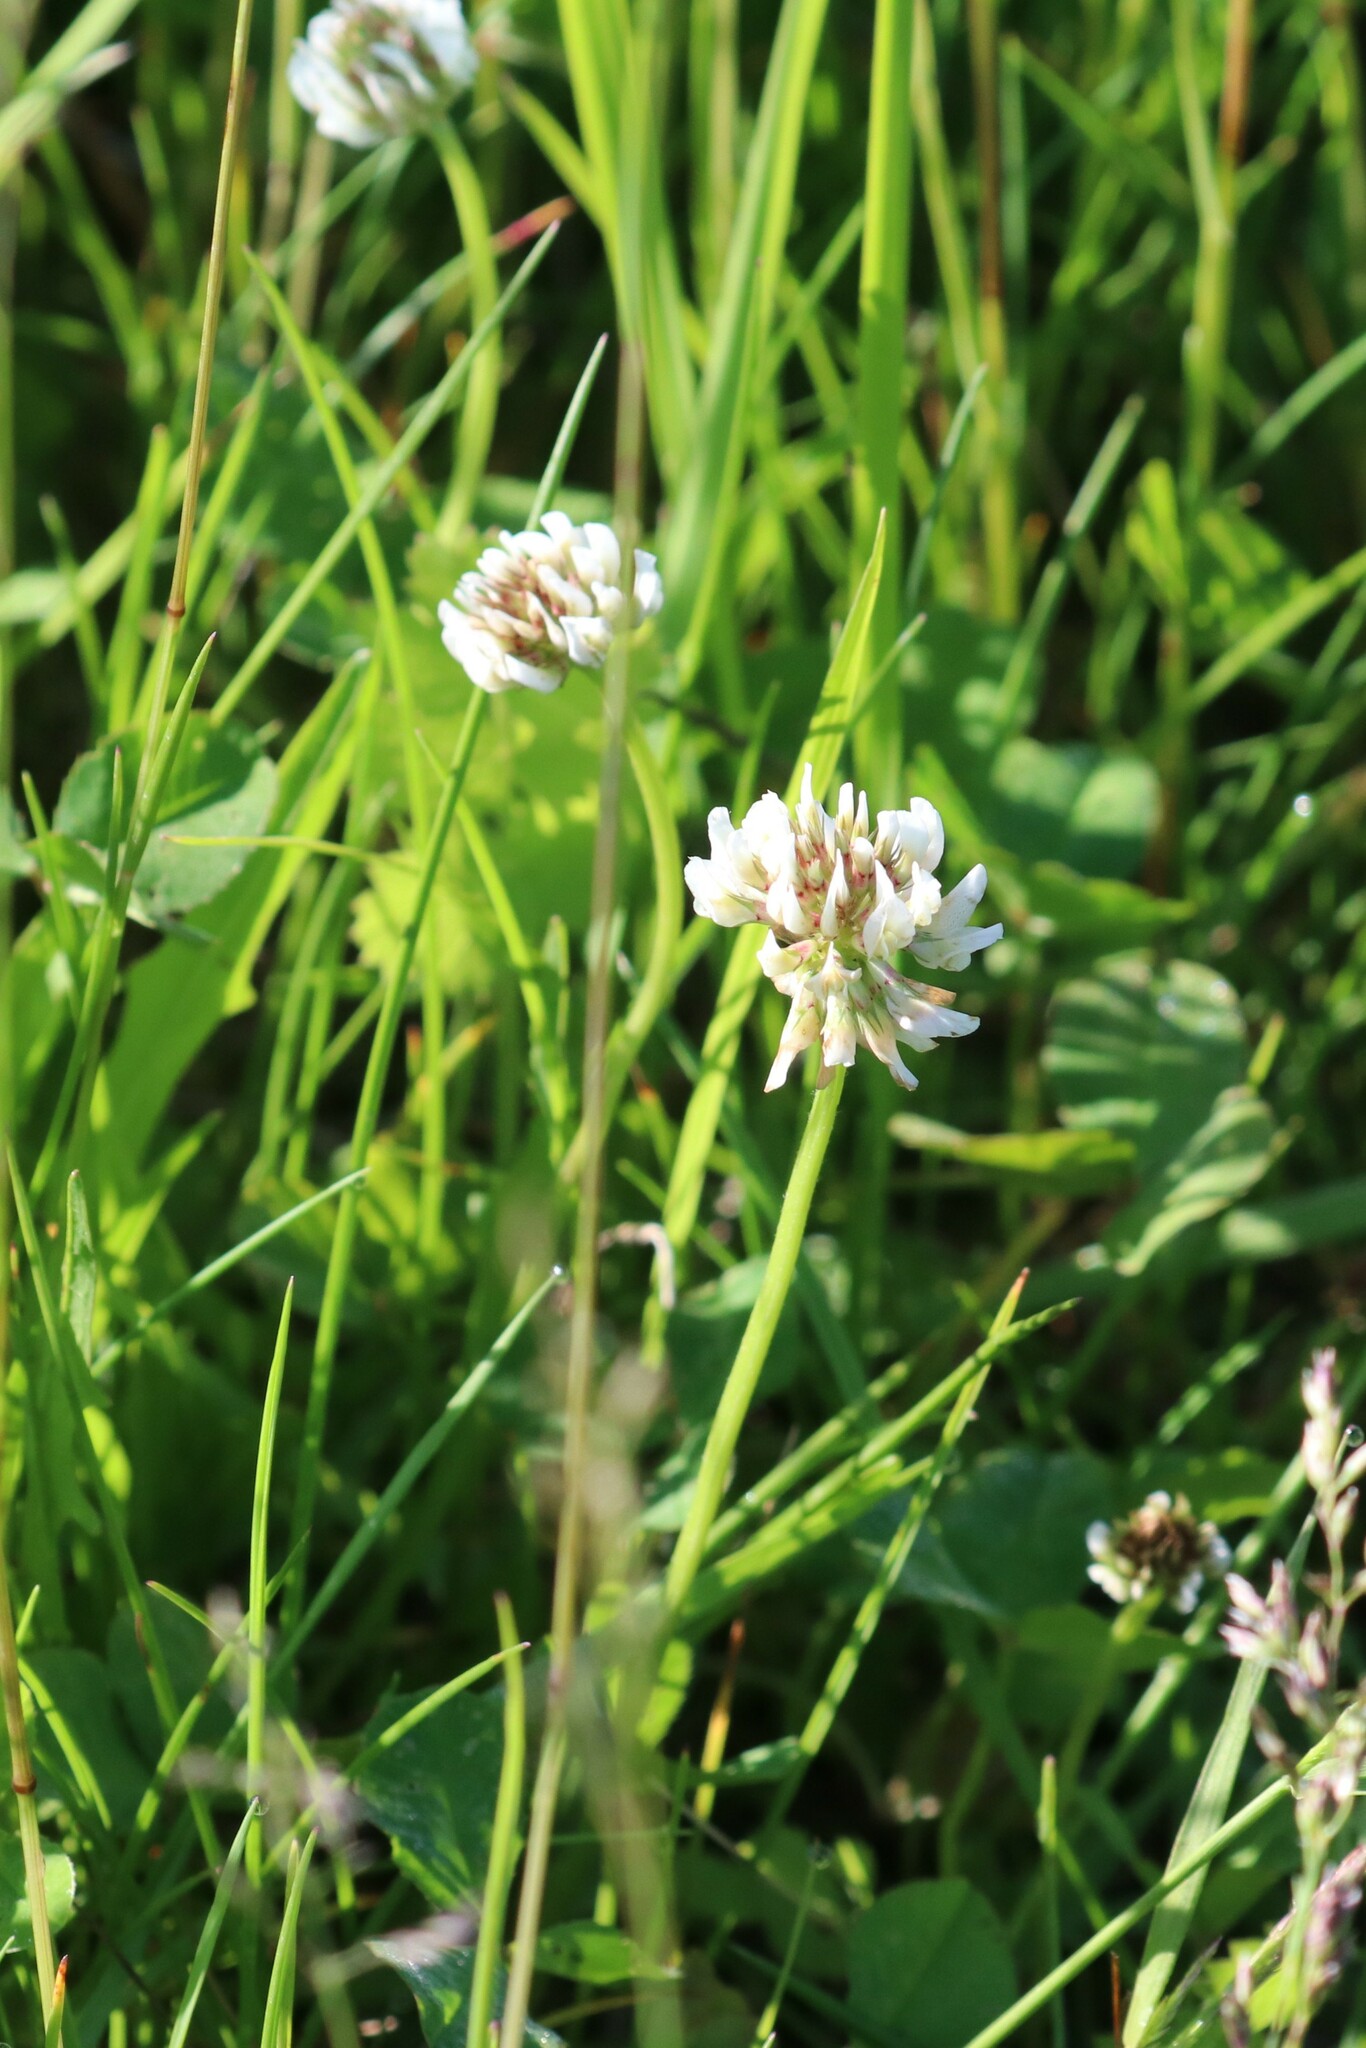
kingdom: Plantae
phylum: Tracheophyta
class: Magnoliopsida
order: Fabales
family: Fabaceae
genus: Trifolium
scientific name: Trifolium repens
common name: White clover
